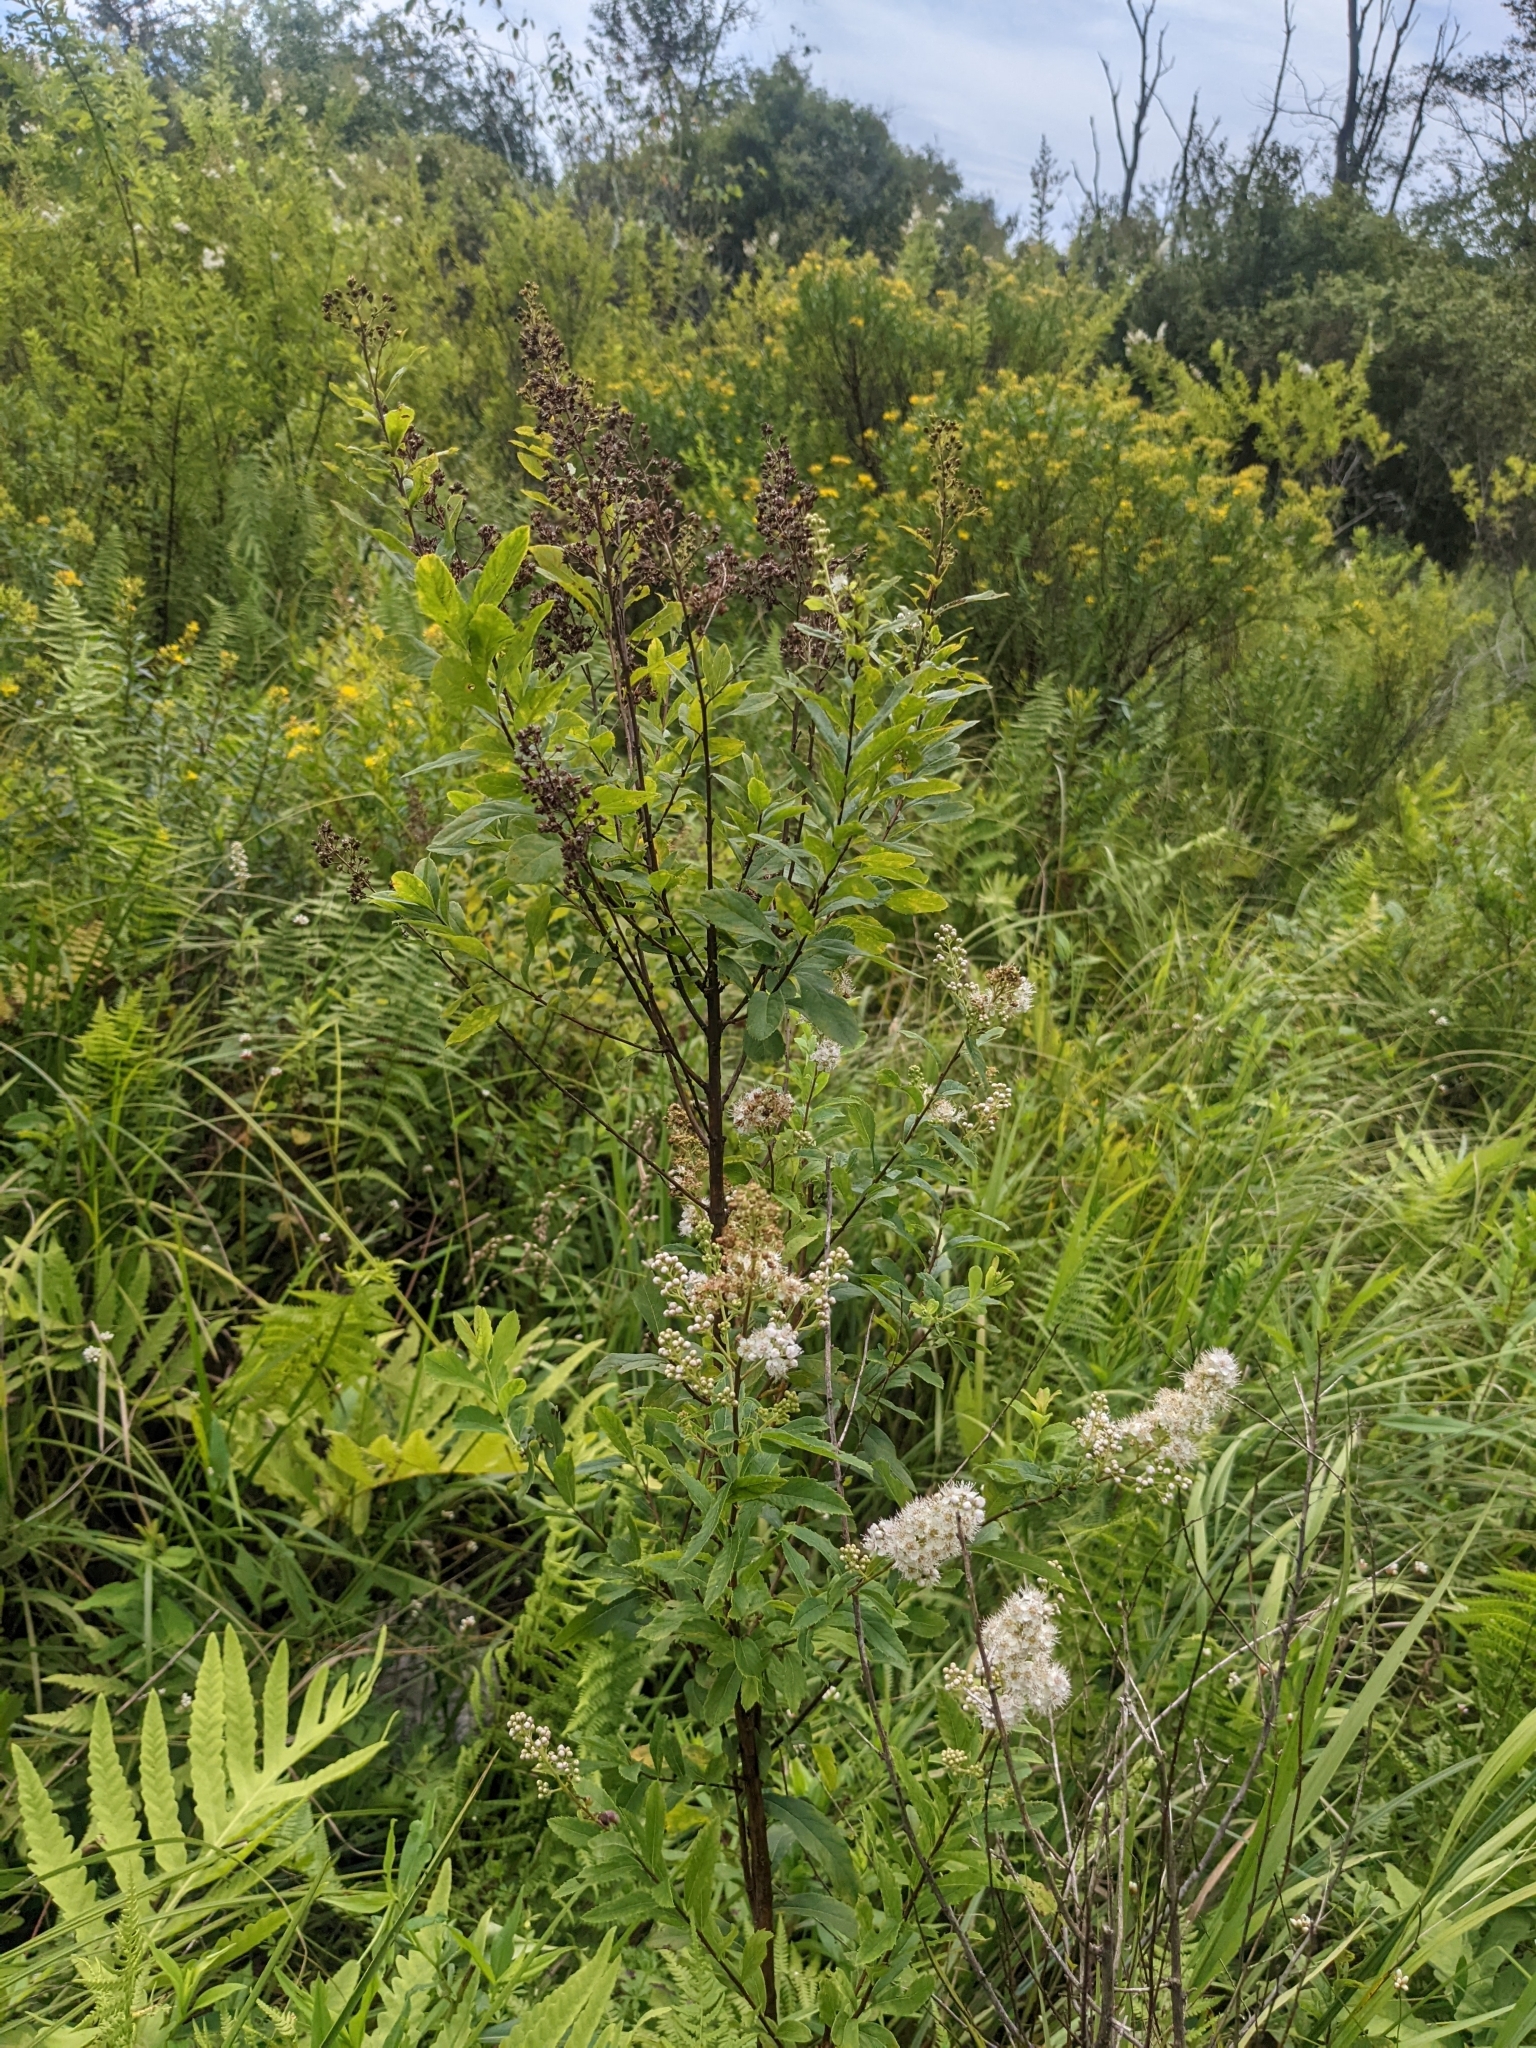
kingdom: Plantae
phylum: Tracheophyta
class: Magnoliopsida
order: Rosales
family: Rosaceae
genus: Spiraea
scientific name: Spiraea alba
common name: Pale bridewort
